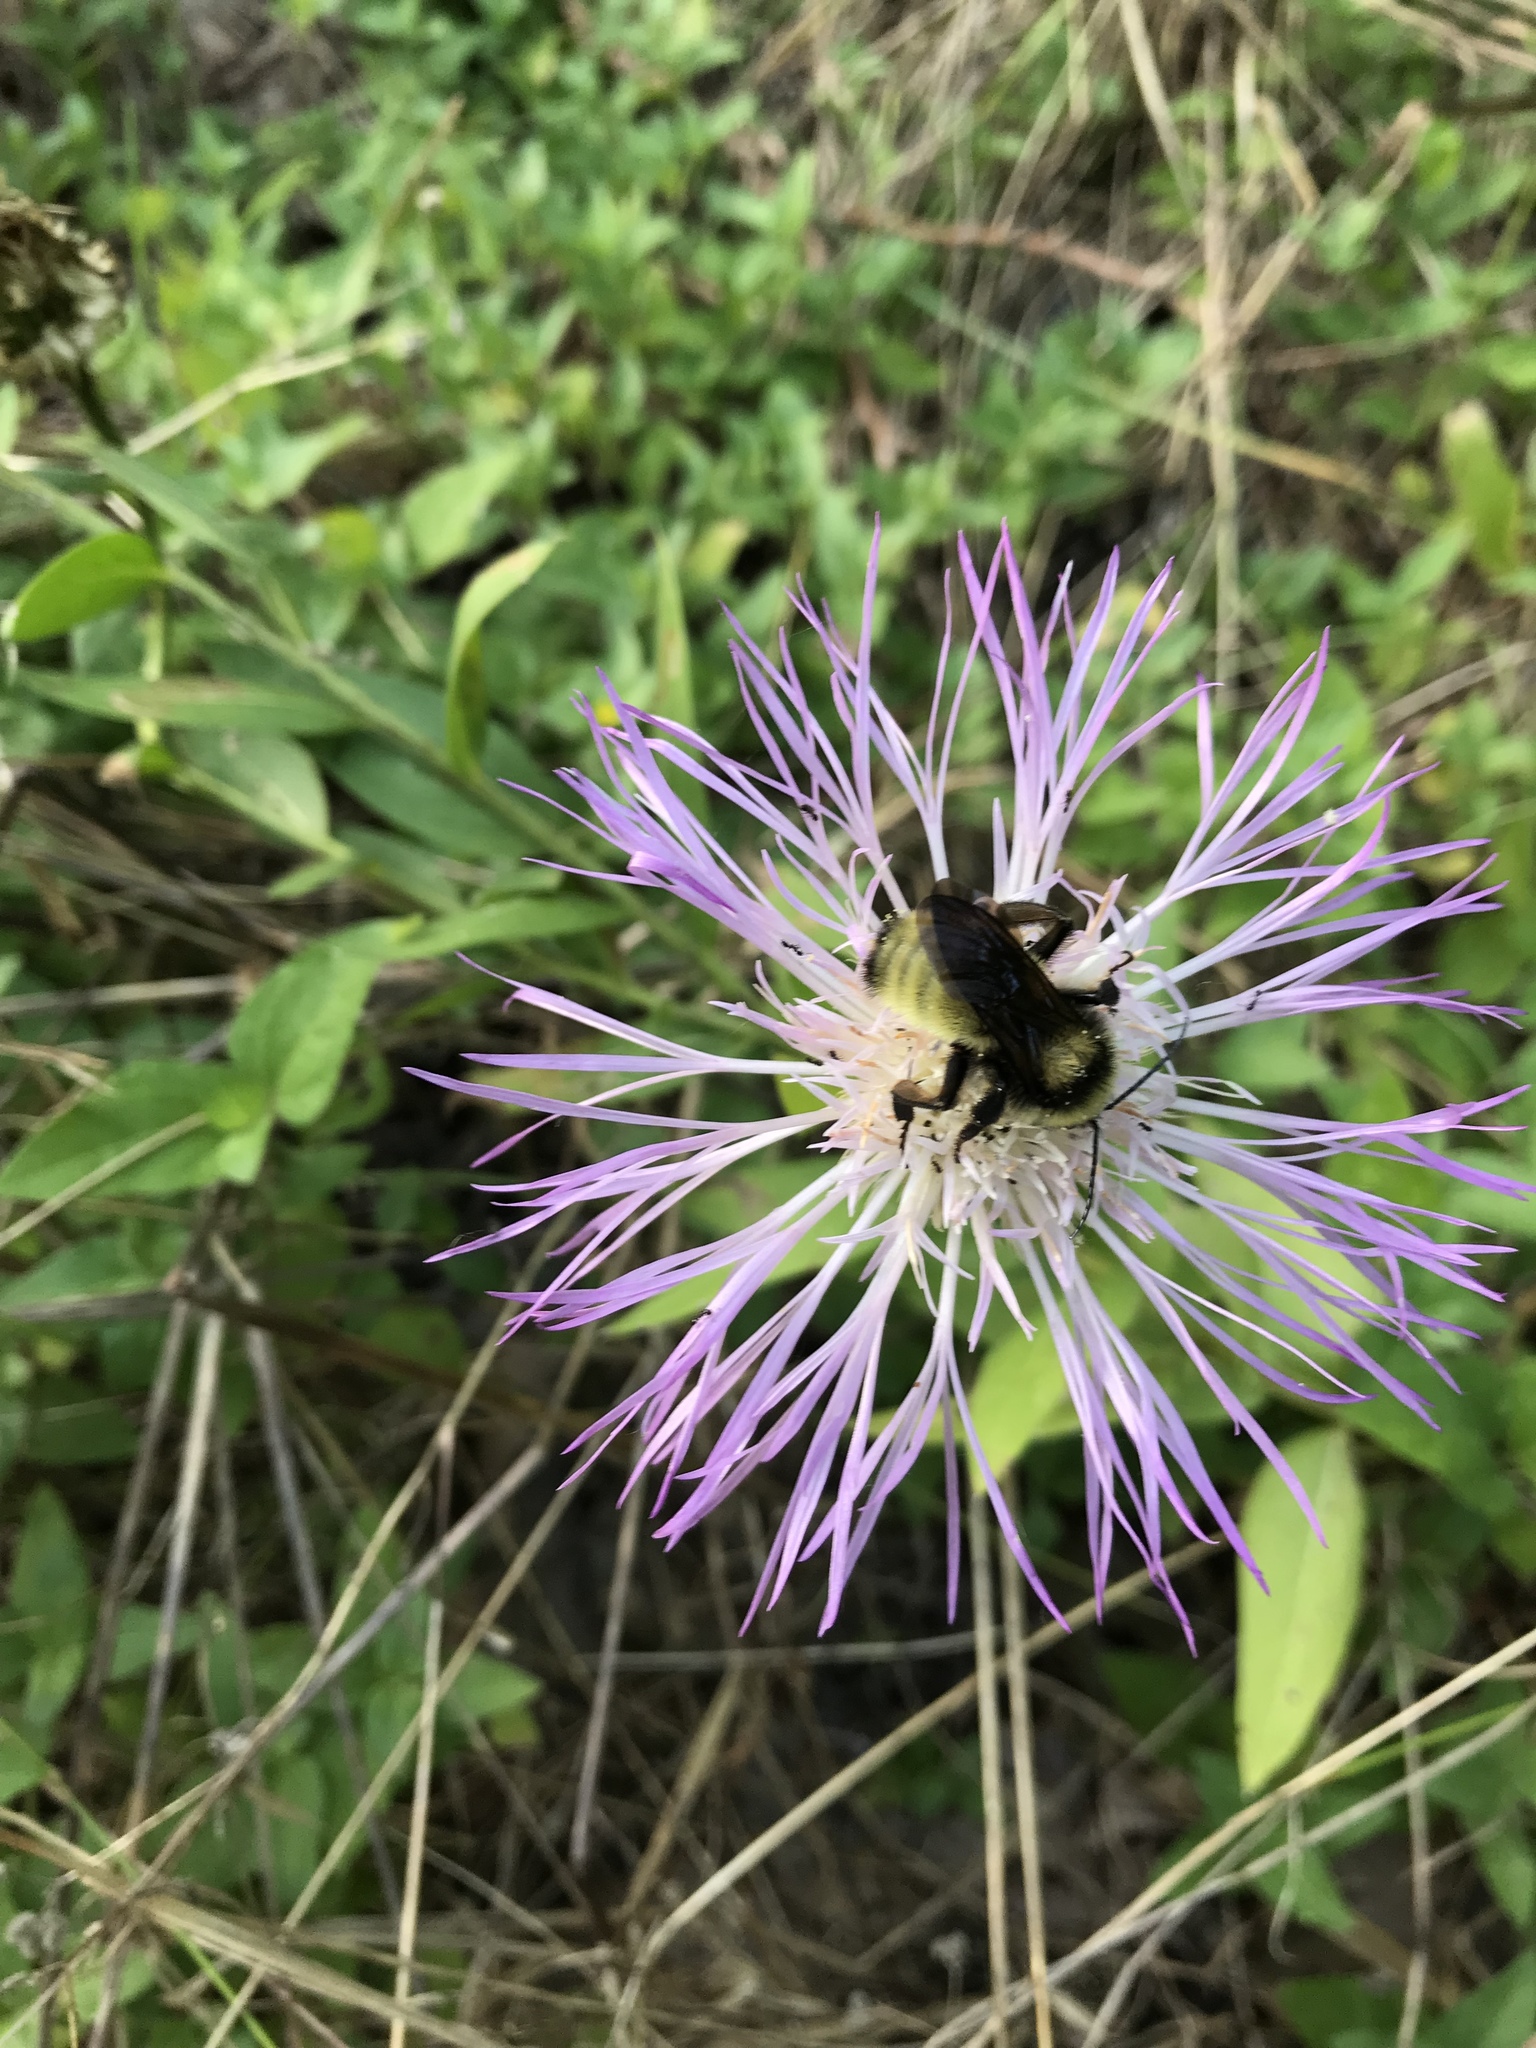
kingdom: Animalia
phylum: Arthropoda
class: Insecta
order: Hymenoptera
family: Apidae
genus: Bombus
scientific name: Bombus pensylvanicus
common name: Bumble bee
